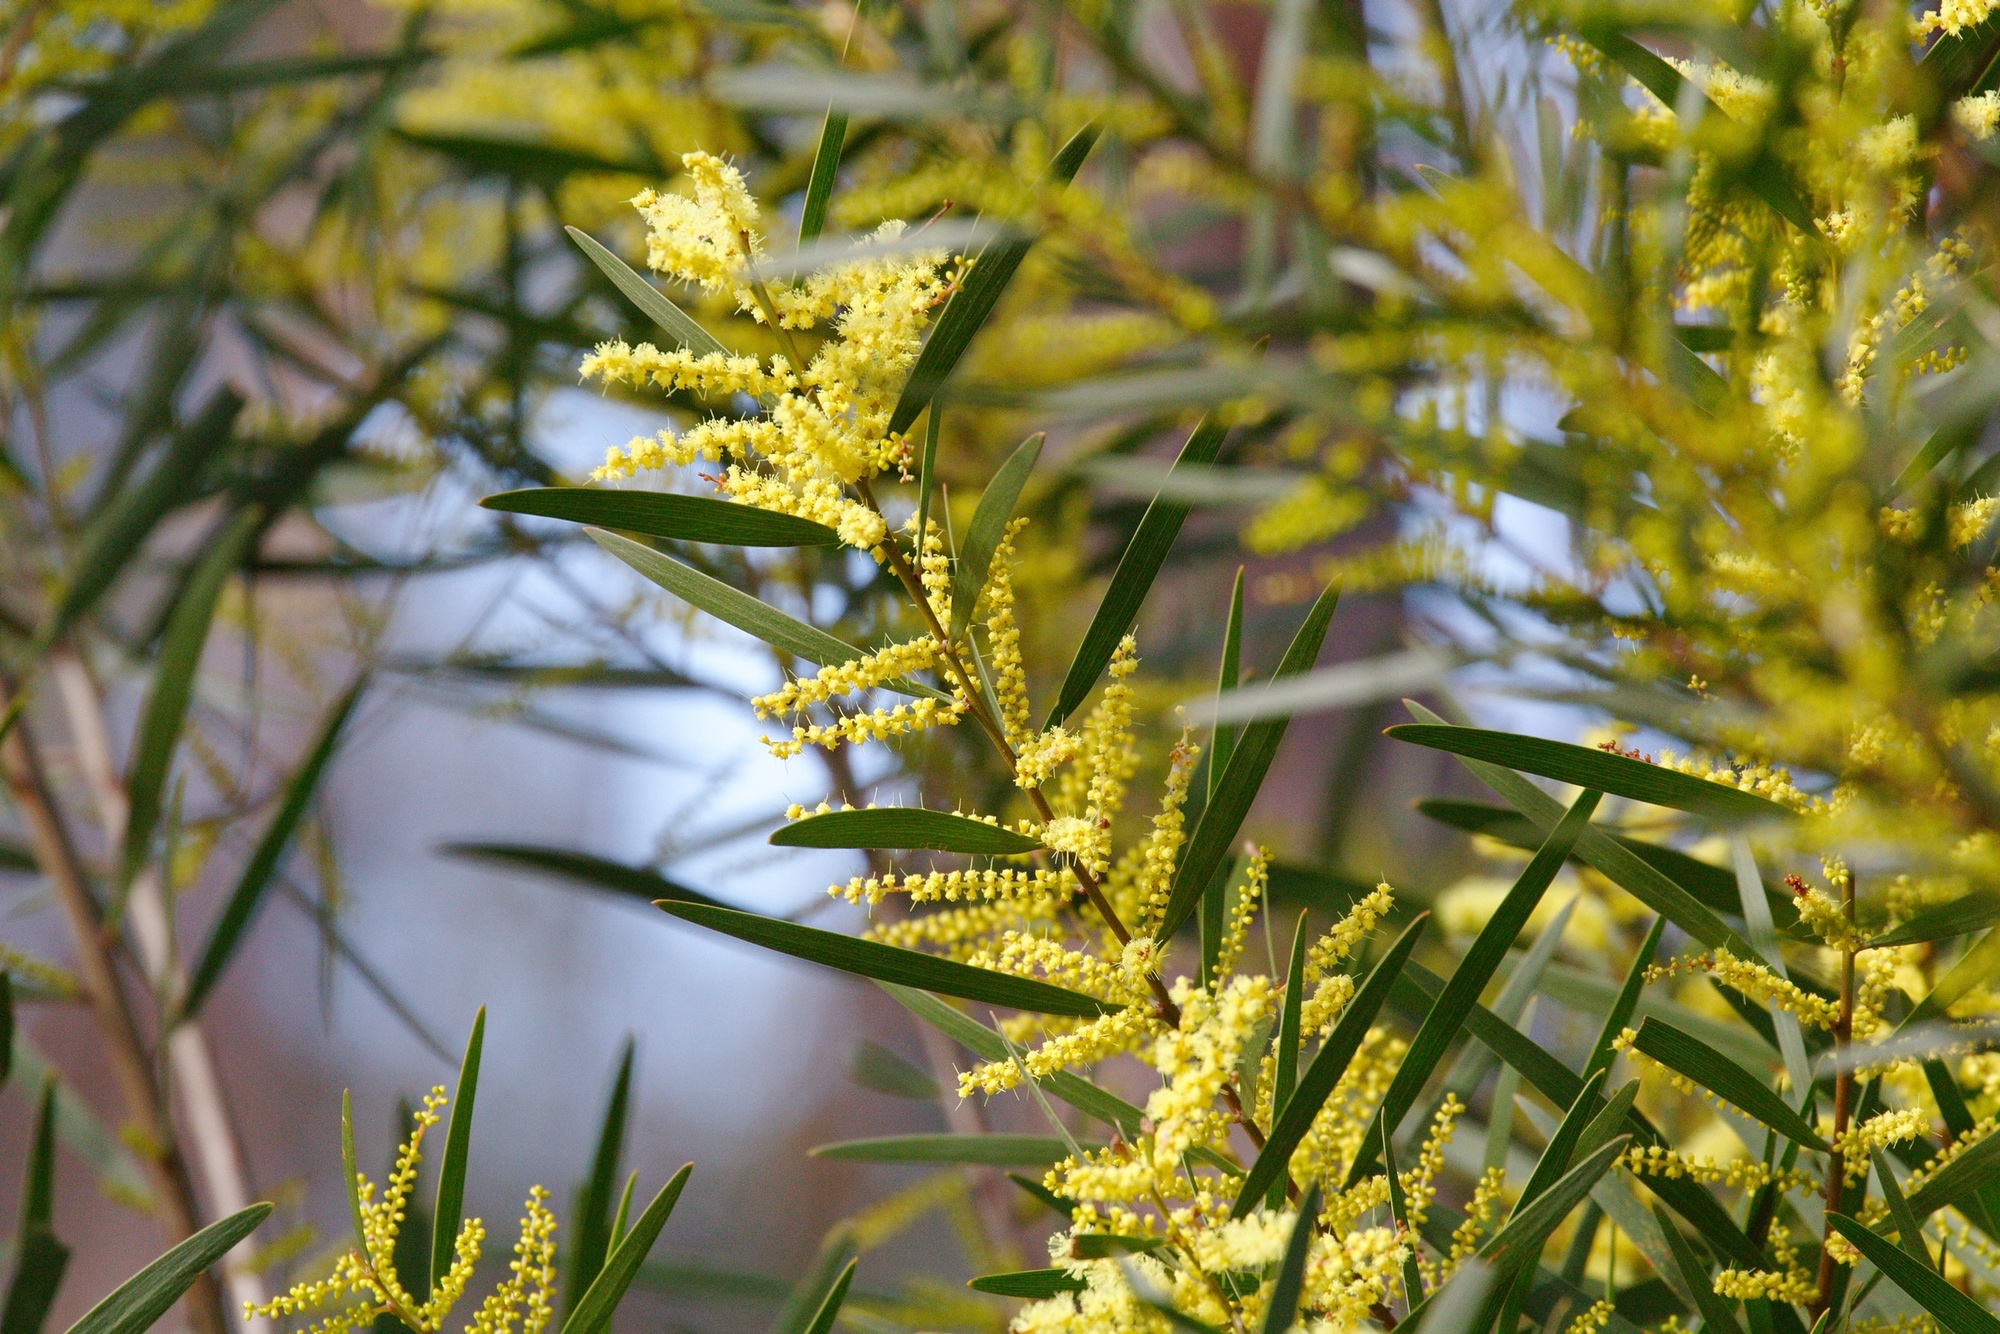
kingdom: Plantae
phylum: Tracheophyta
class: Magnoliopsida
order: Fabales
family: Fabaceae
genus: Acacia
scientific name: Acacia longifolia
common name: Sydney golden wattle
